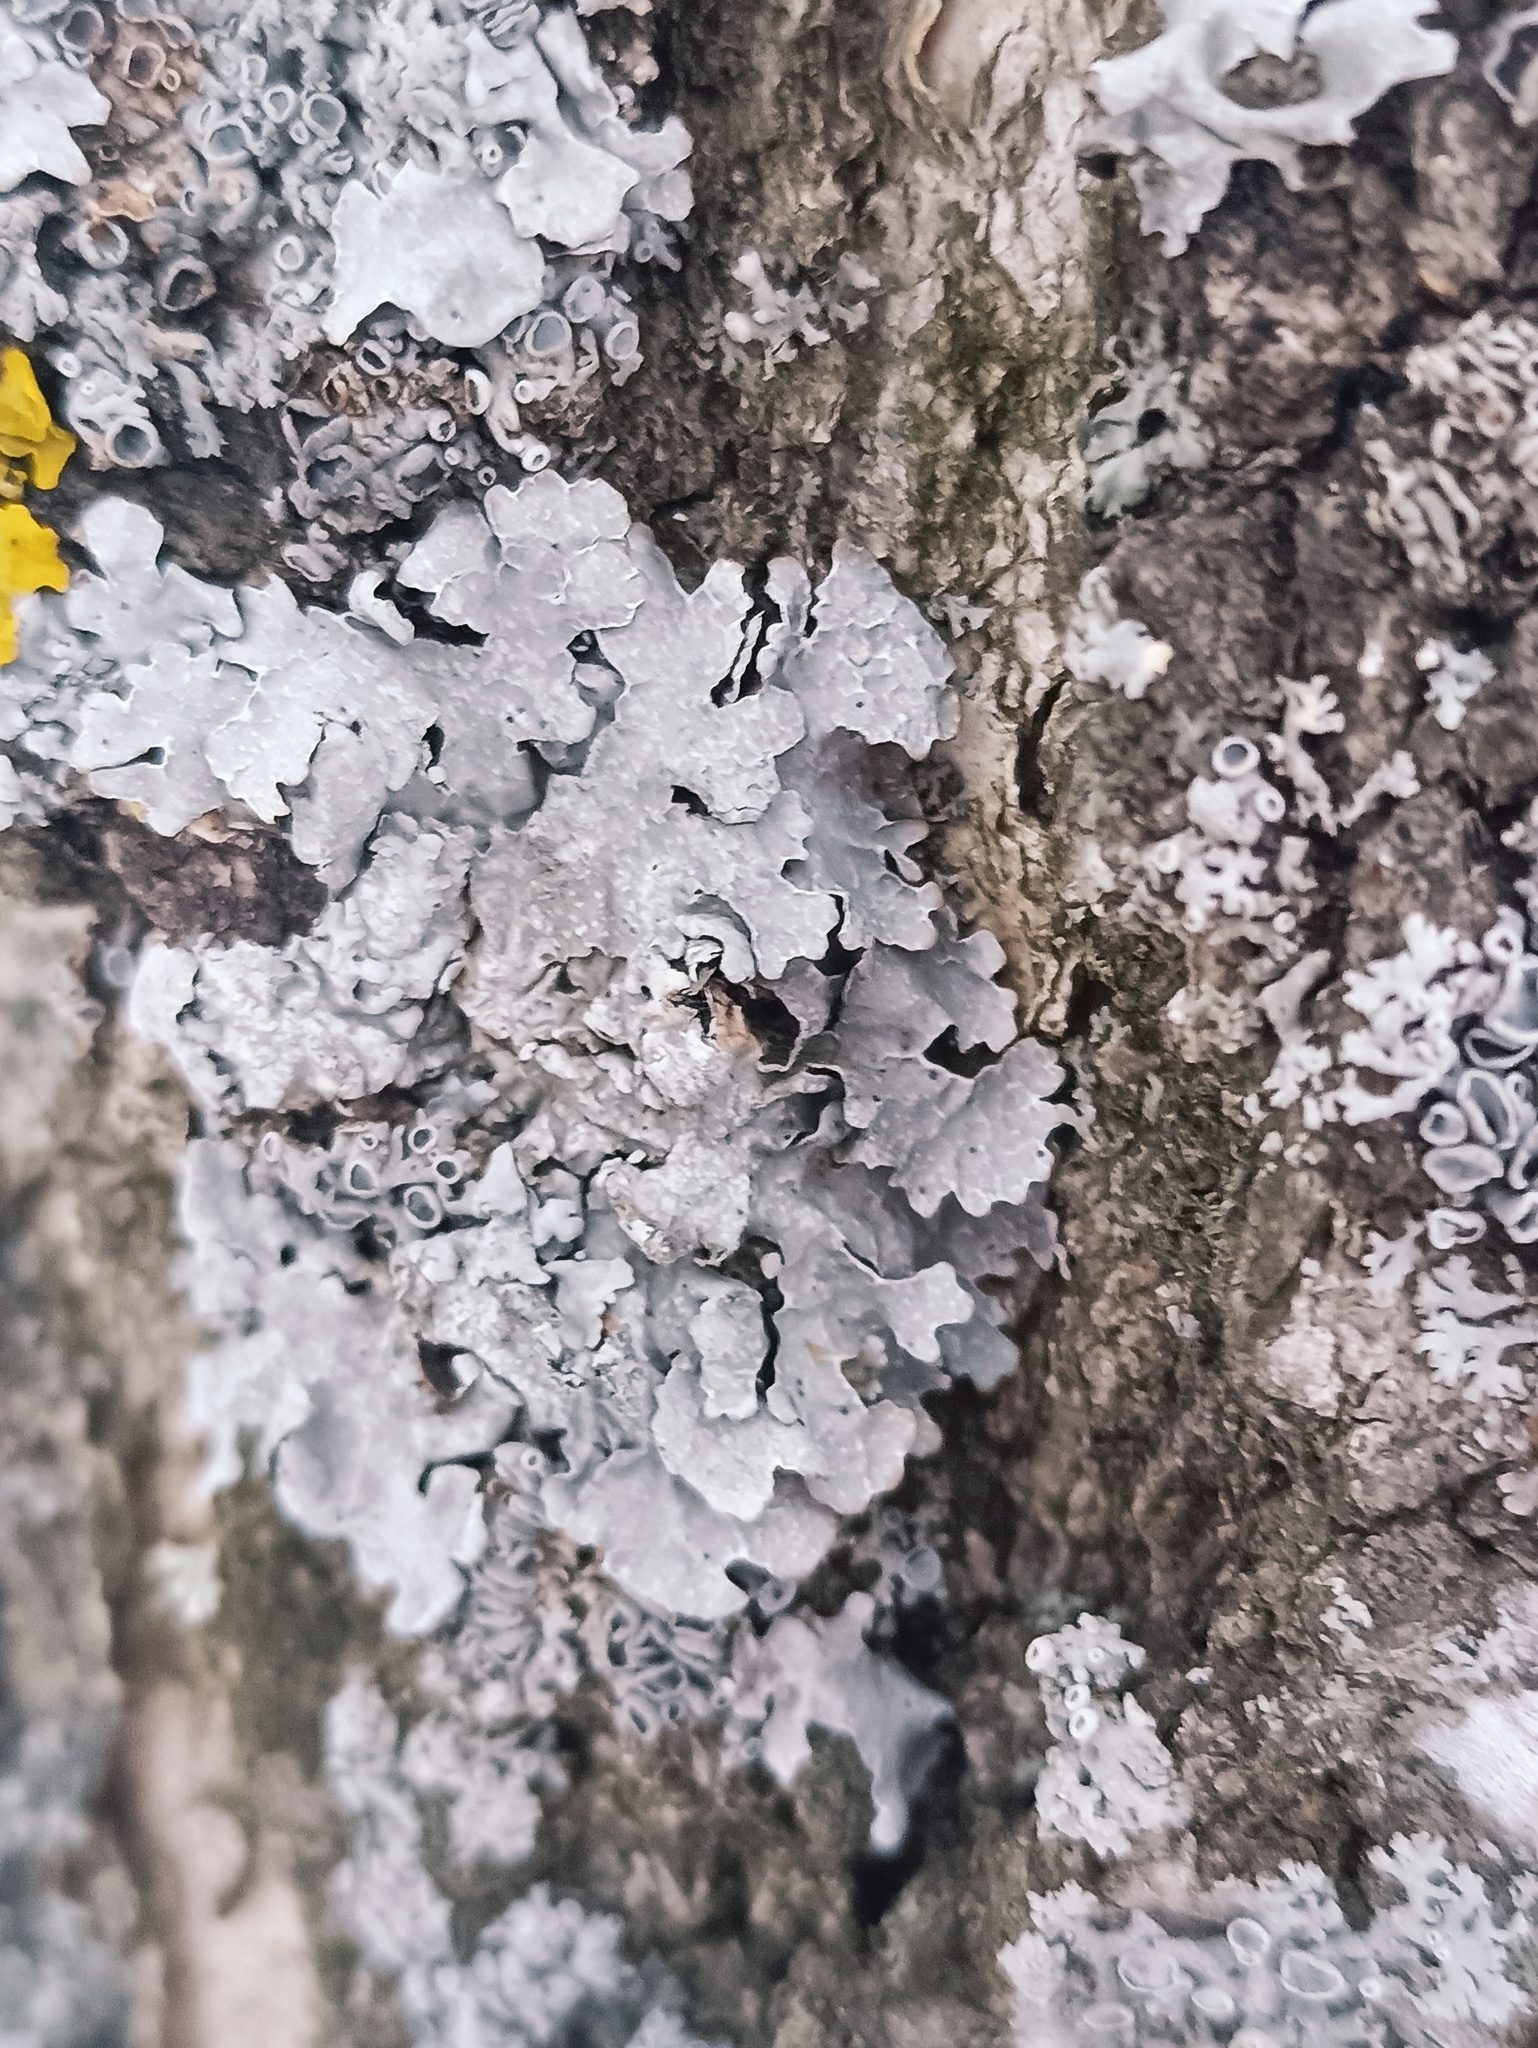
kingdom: Fungi
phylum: Ascomycota
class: Lecanoromycetes
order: Lecanorales
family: Parmeliaceae
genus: Parmelia
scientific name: Parmelia sulcata
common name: Netted shield lichen
